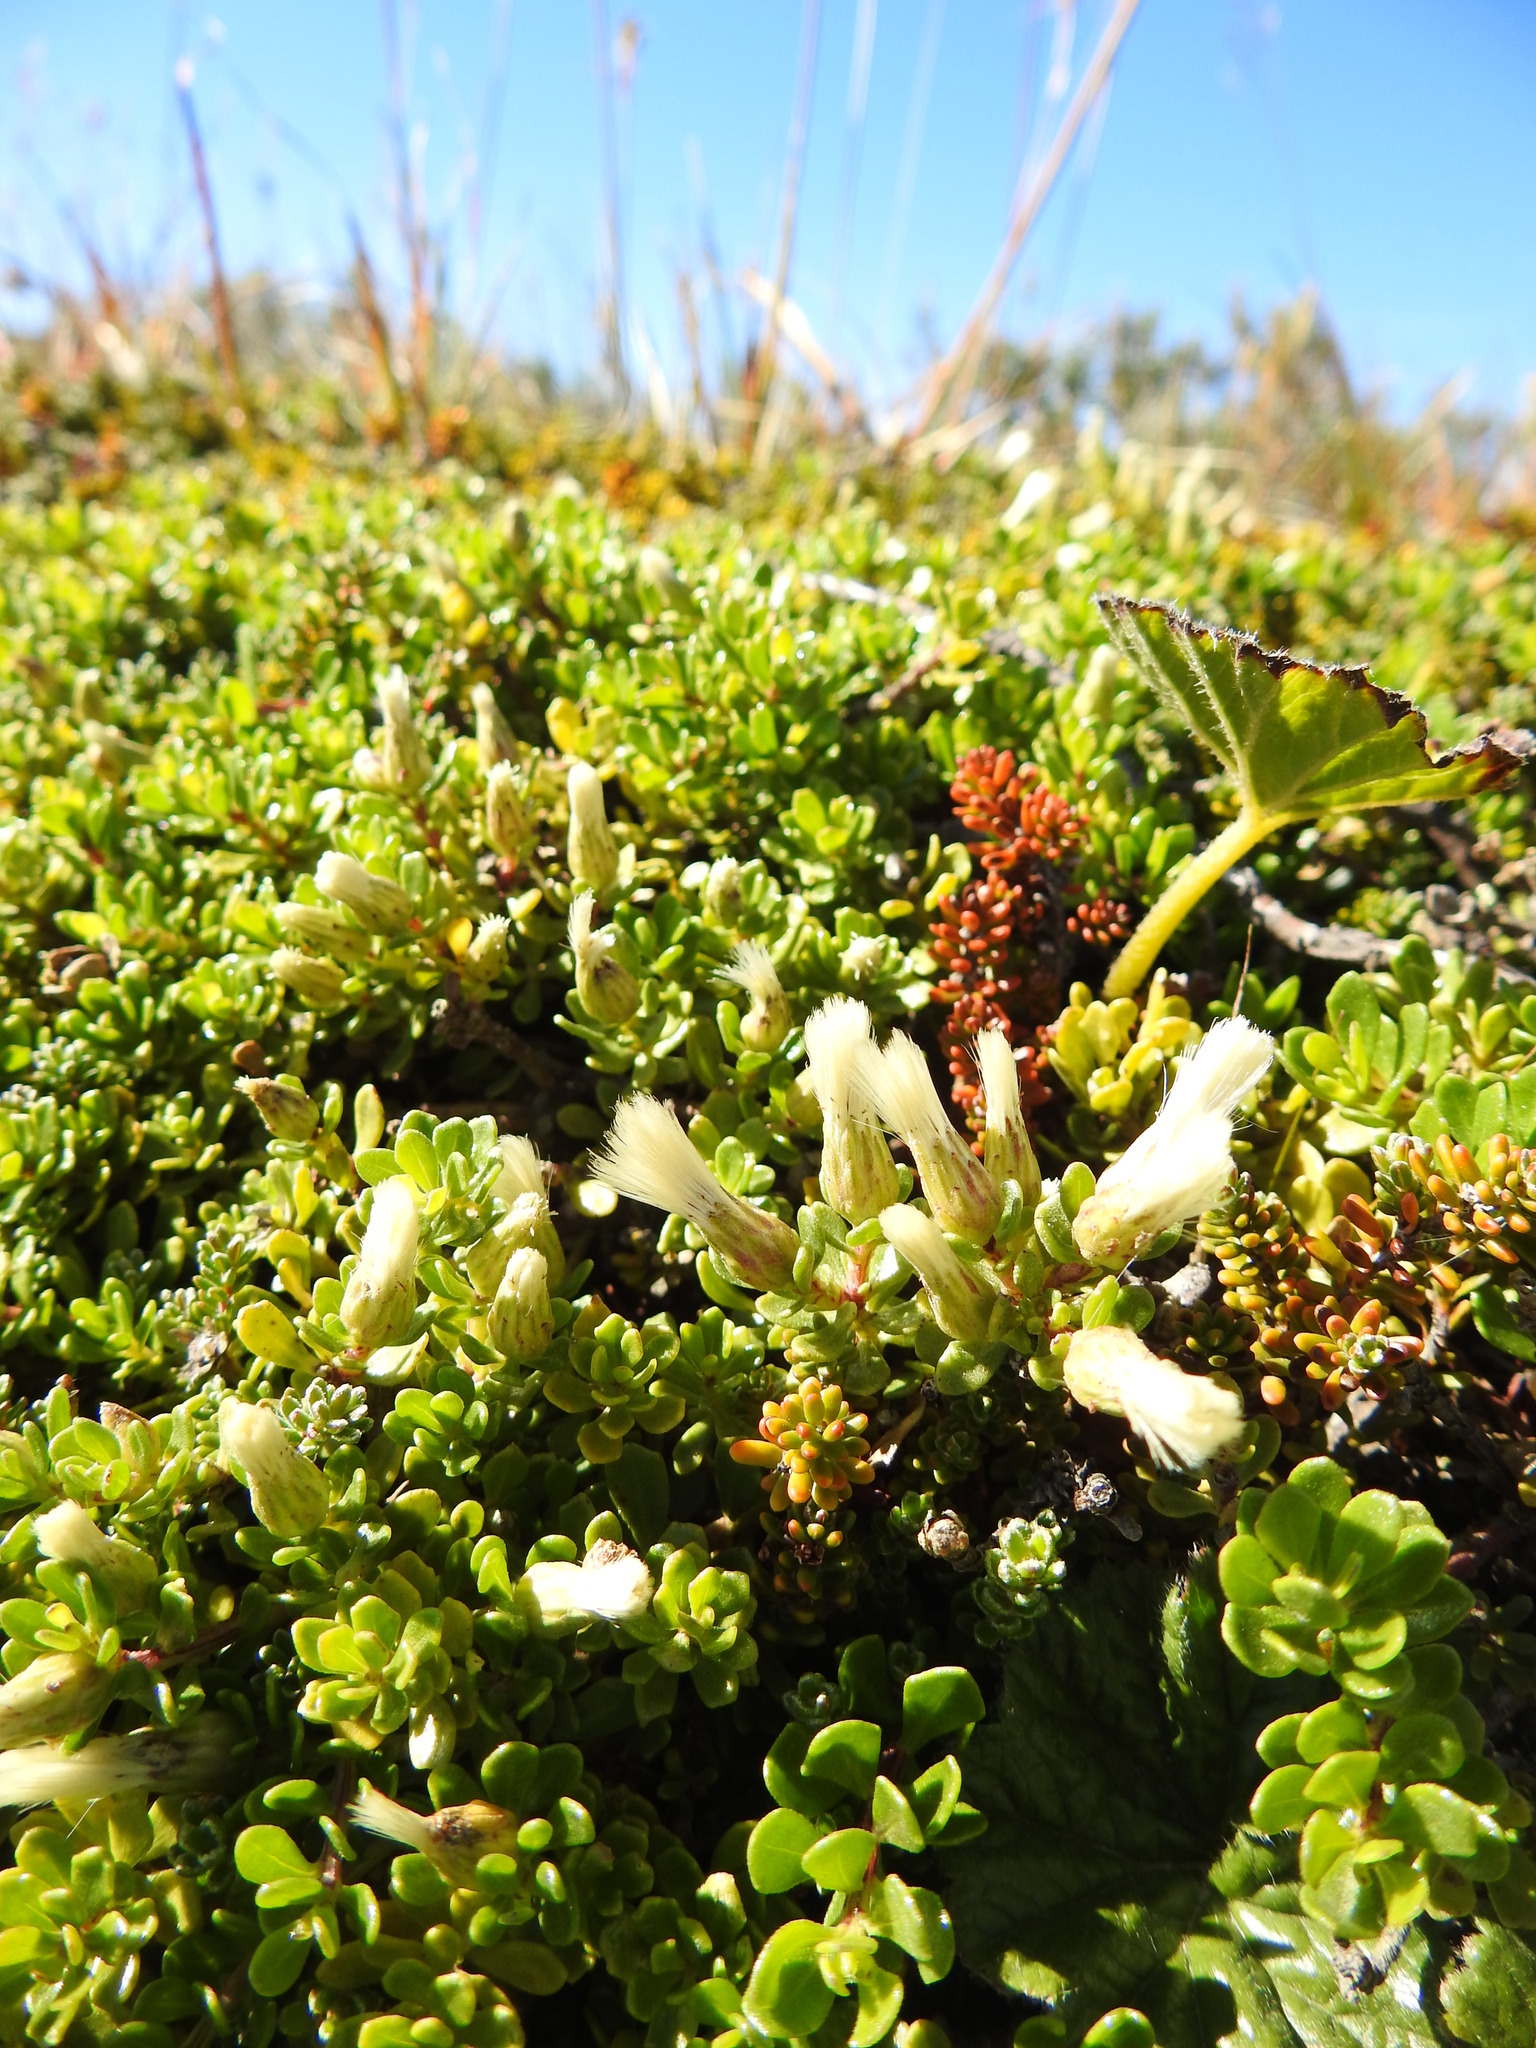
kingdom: Plantae
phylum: Tracheophyta
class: Magnoliopsida
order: Asterales
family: Asteraceae
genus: Baccharis
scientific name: Baccharis magellanica
